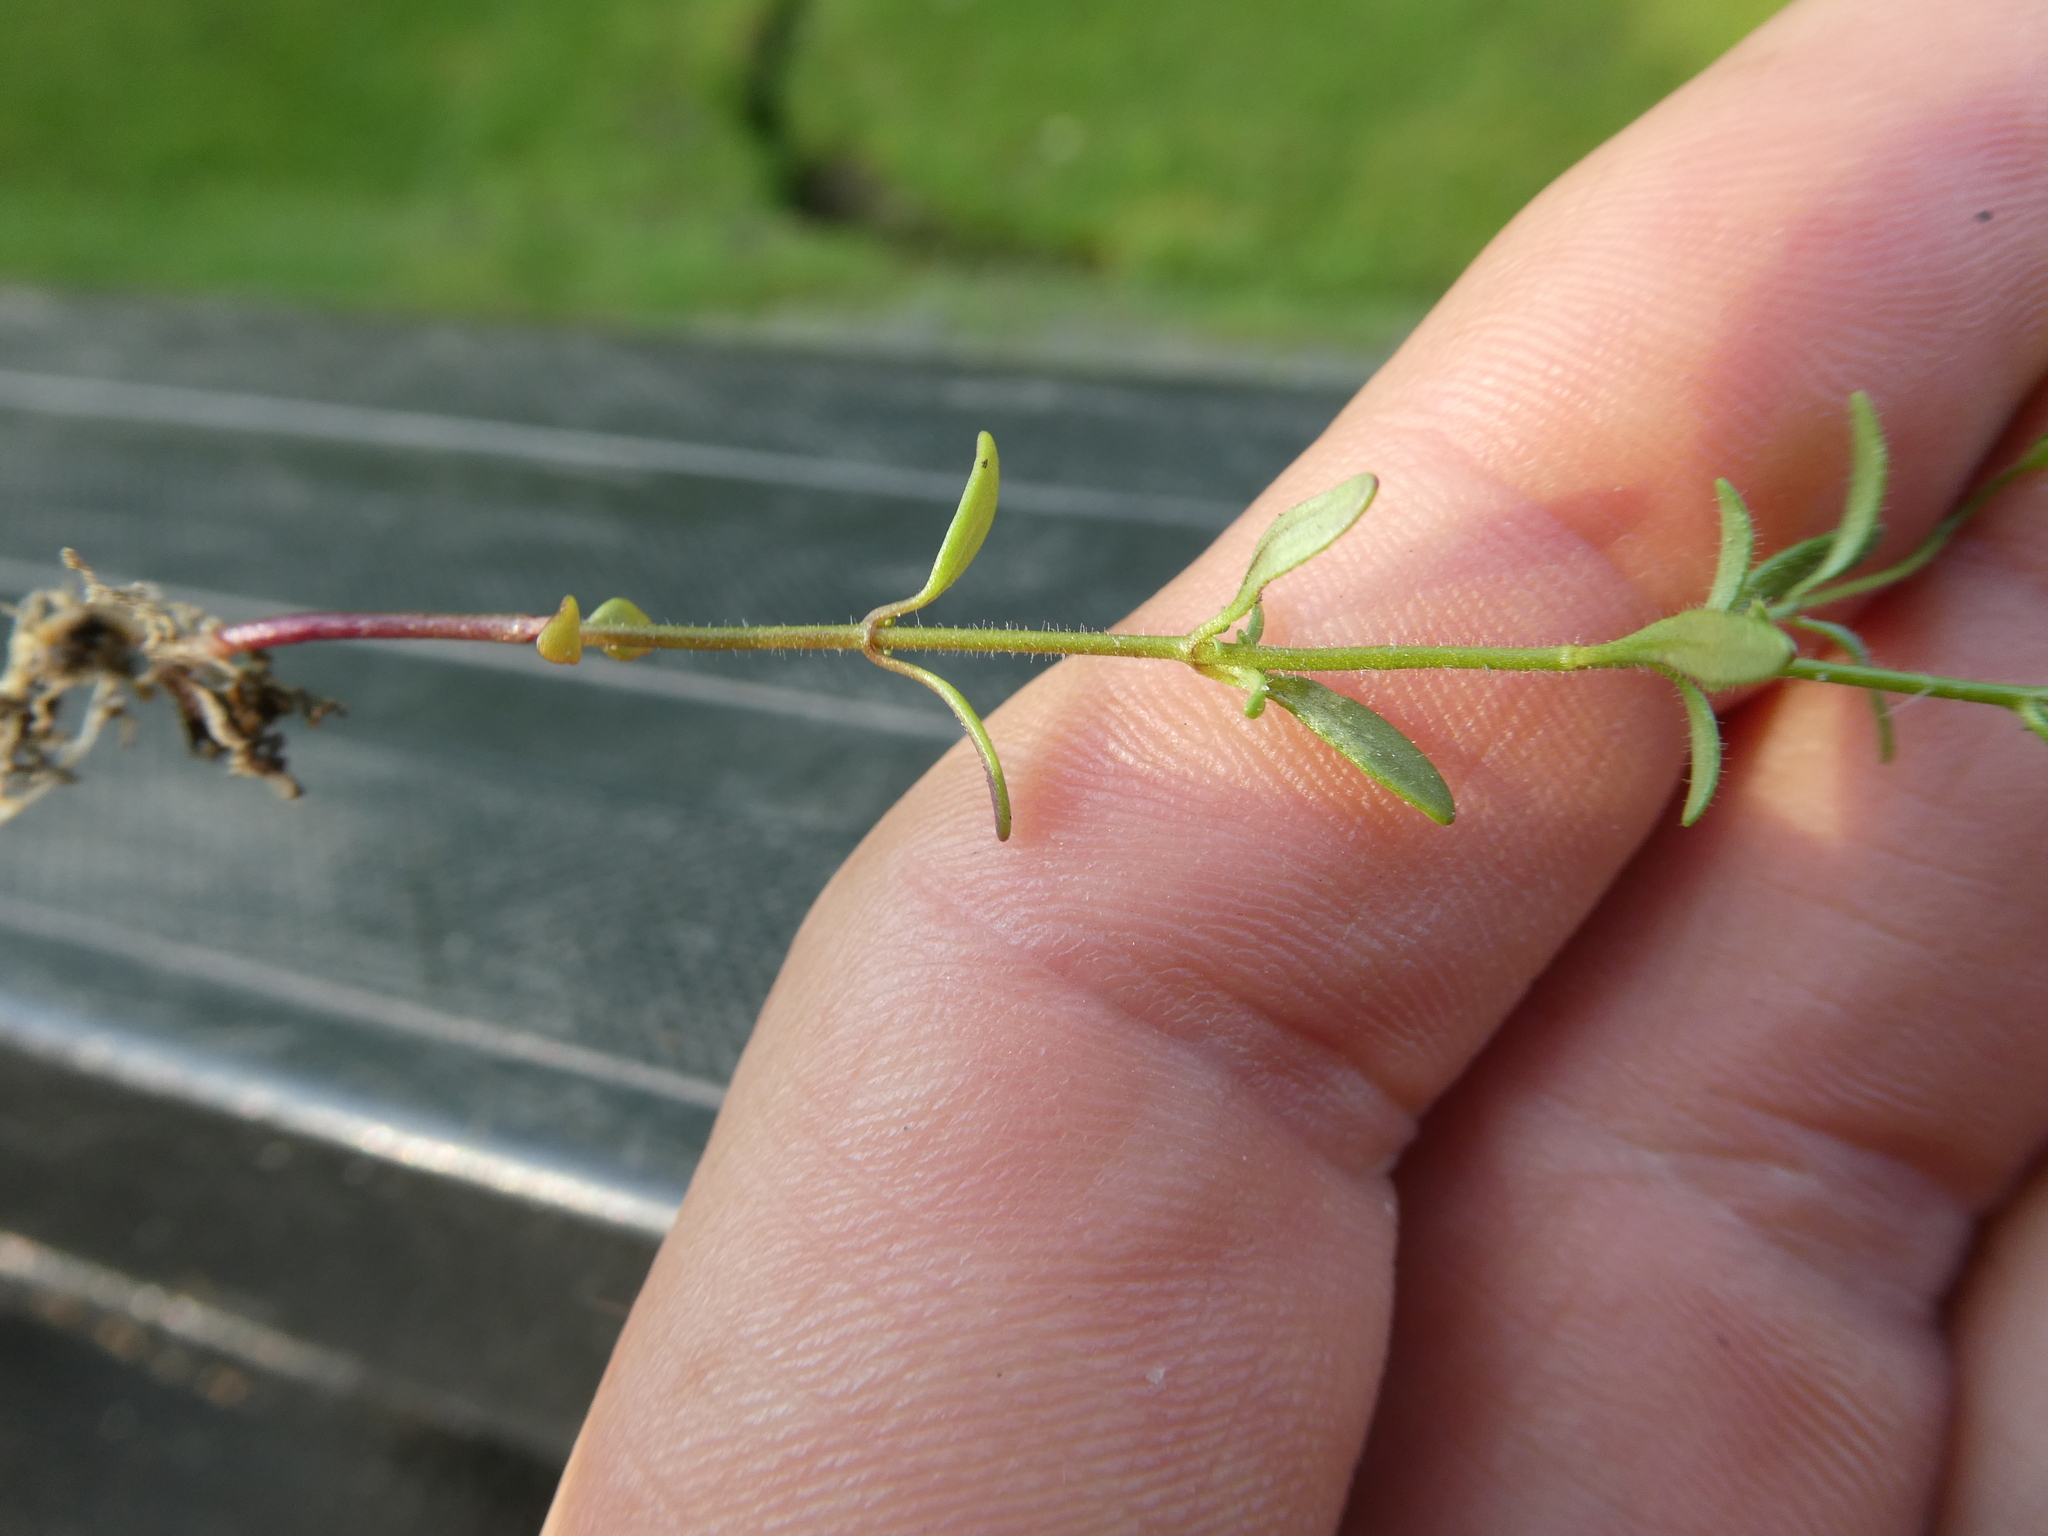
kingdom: Plantae
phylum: Tracheophyta
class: Magnoliopsida
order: Lamiales
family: Plantaginaceae
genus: Chaenorhinum
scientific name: Chaenorhinum minus
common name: Dwarf snapdragon
